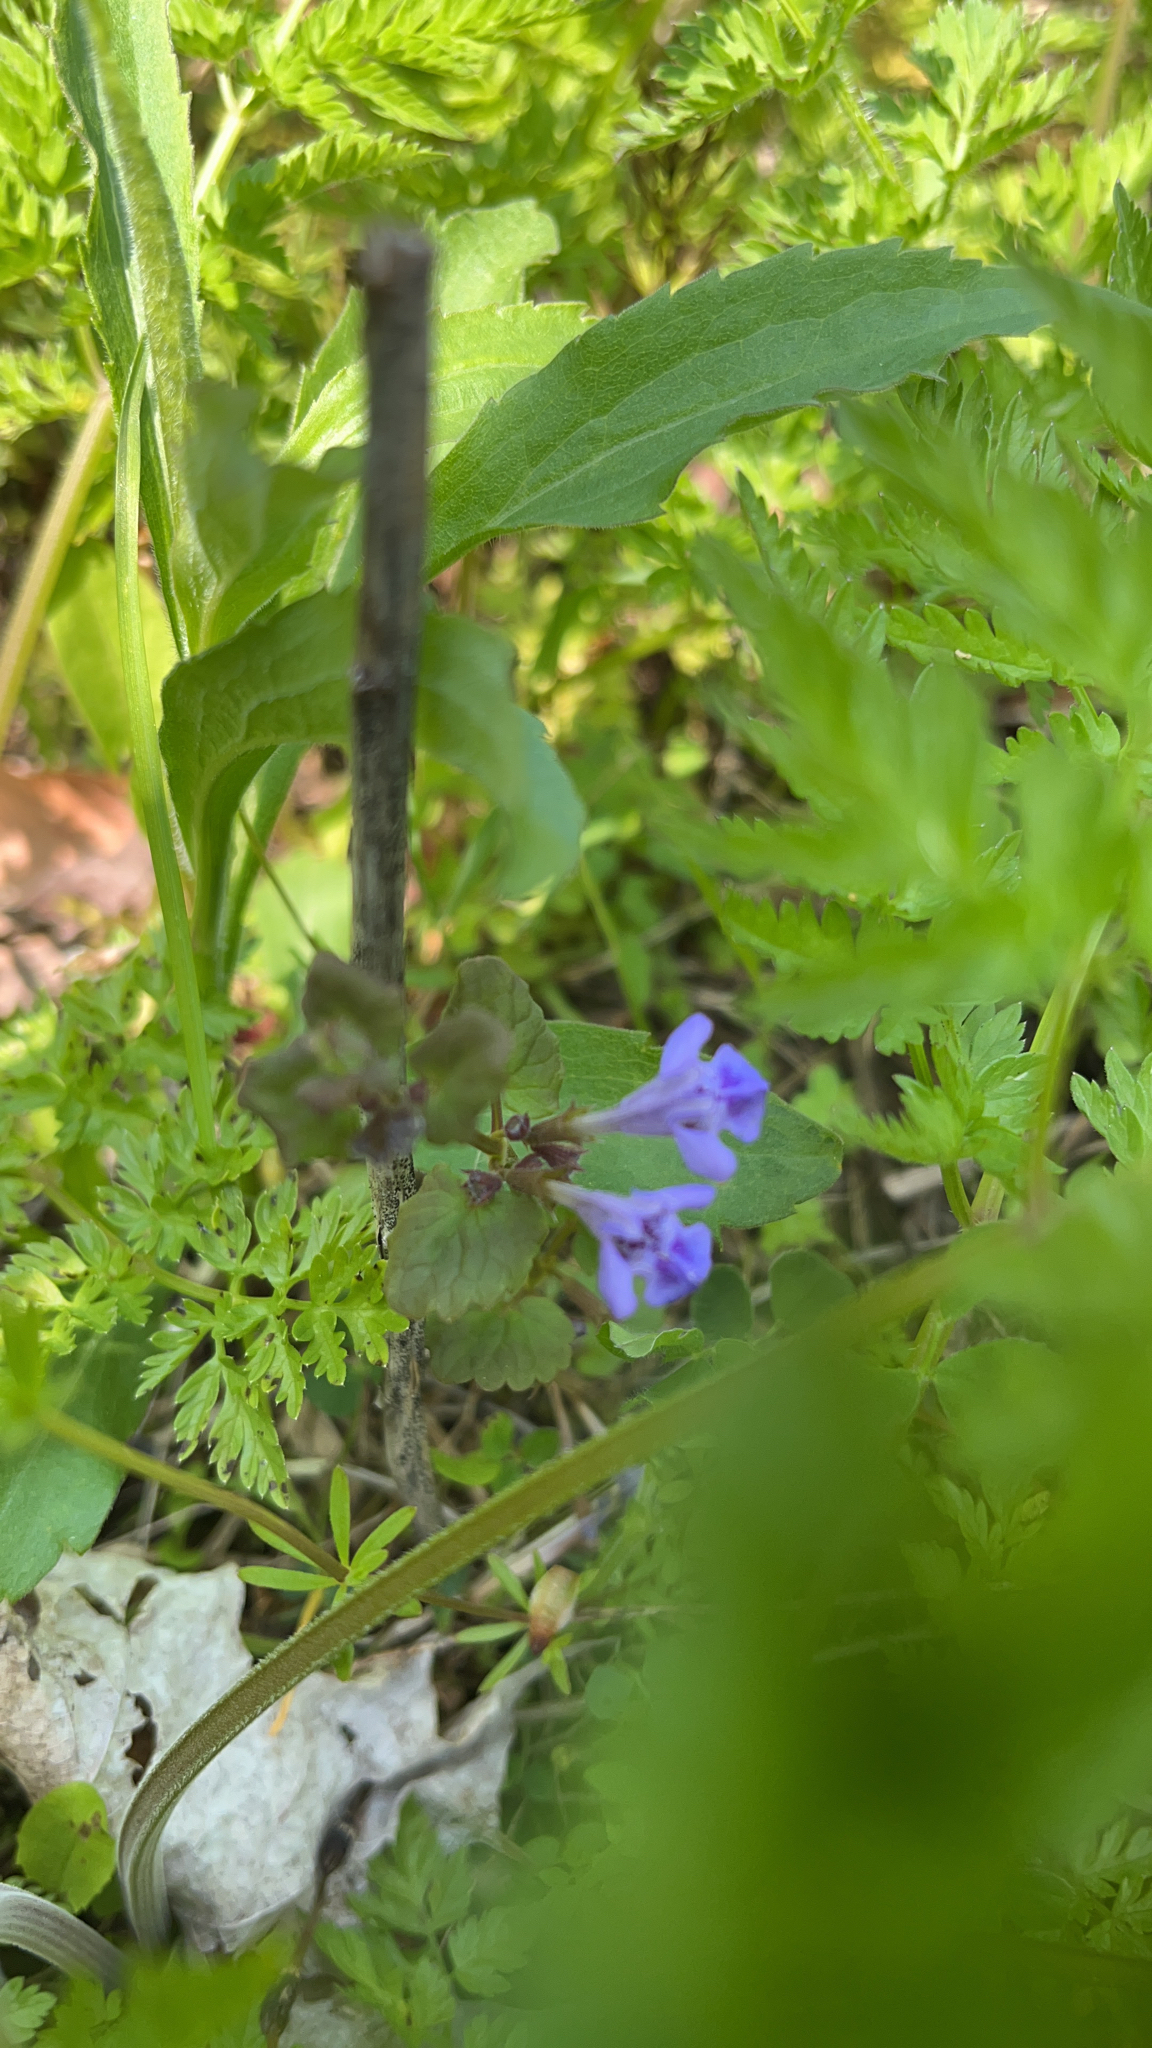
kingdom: Plantae
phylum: Tracheophyta
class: Magnoliopsida
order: Lamiales
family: Lamiaceae
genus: Glechoma
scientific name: Glechoma hederacea
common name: Ground ivy
